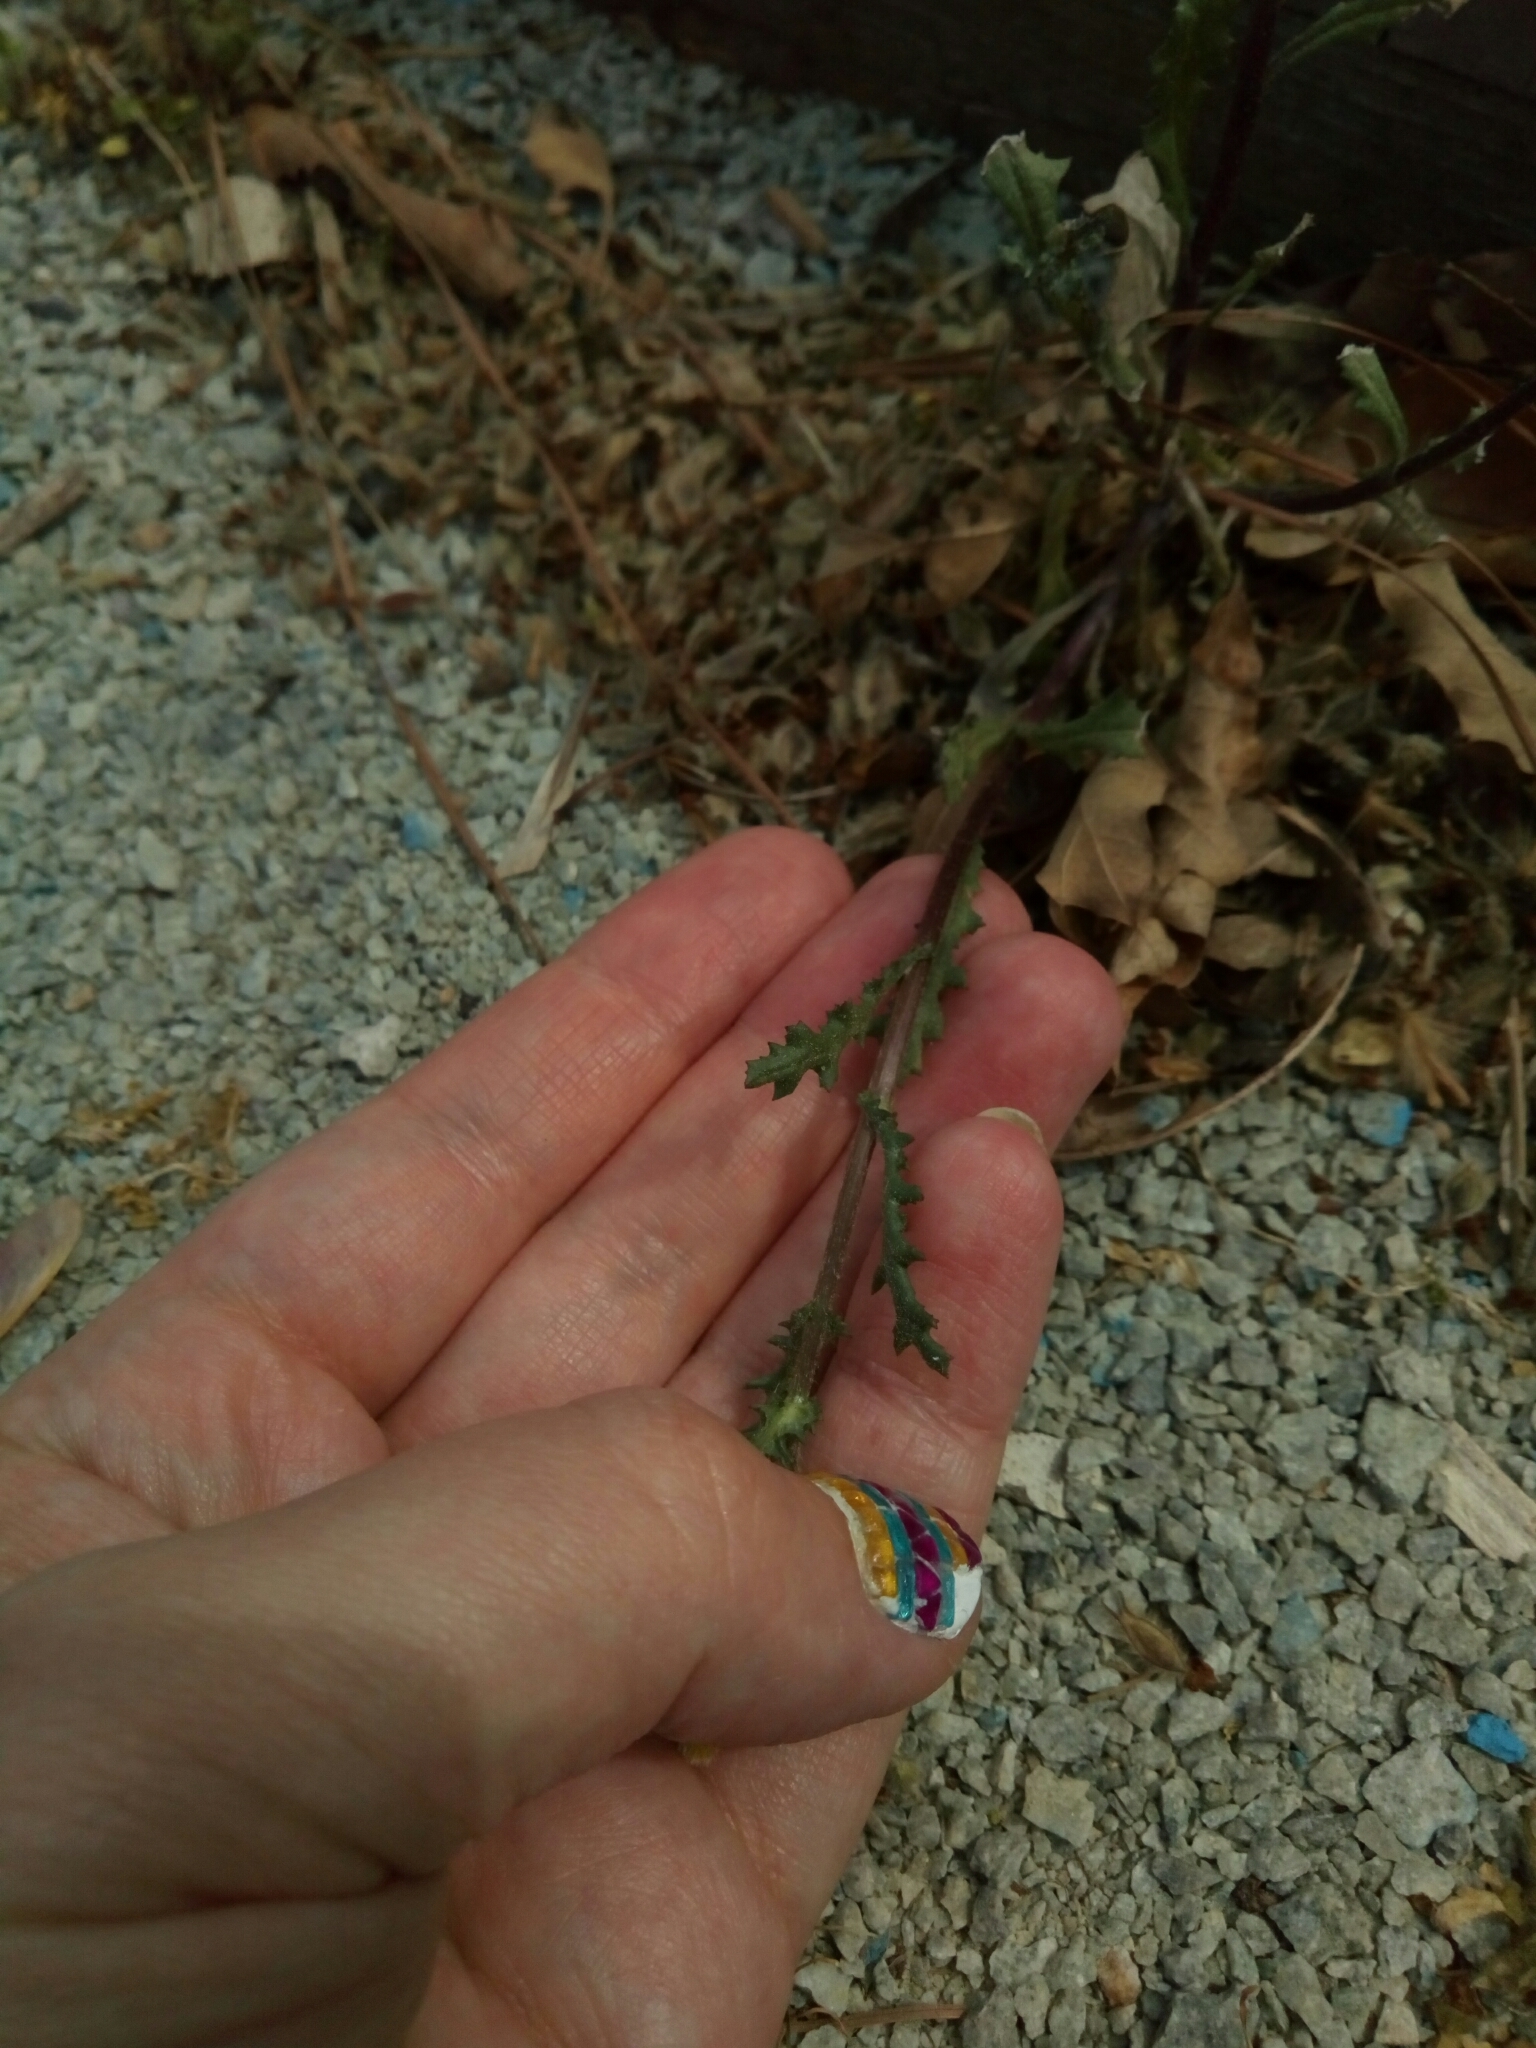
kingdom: Plantae
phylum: Tracheophyta
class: Magnoliopsida
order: Asterales
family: Asteraceae
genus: Senecio
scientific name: Senecio vulgaris
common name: Old-man-in-the-spring
